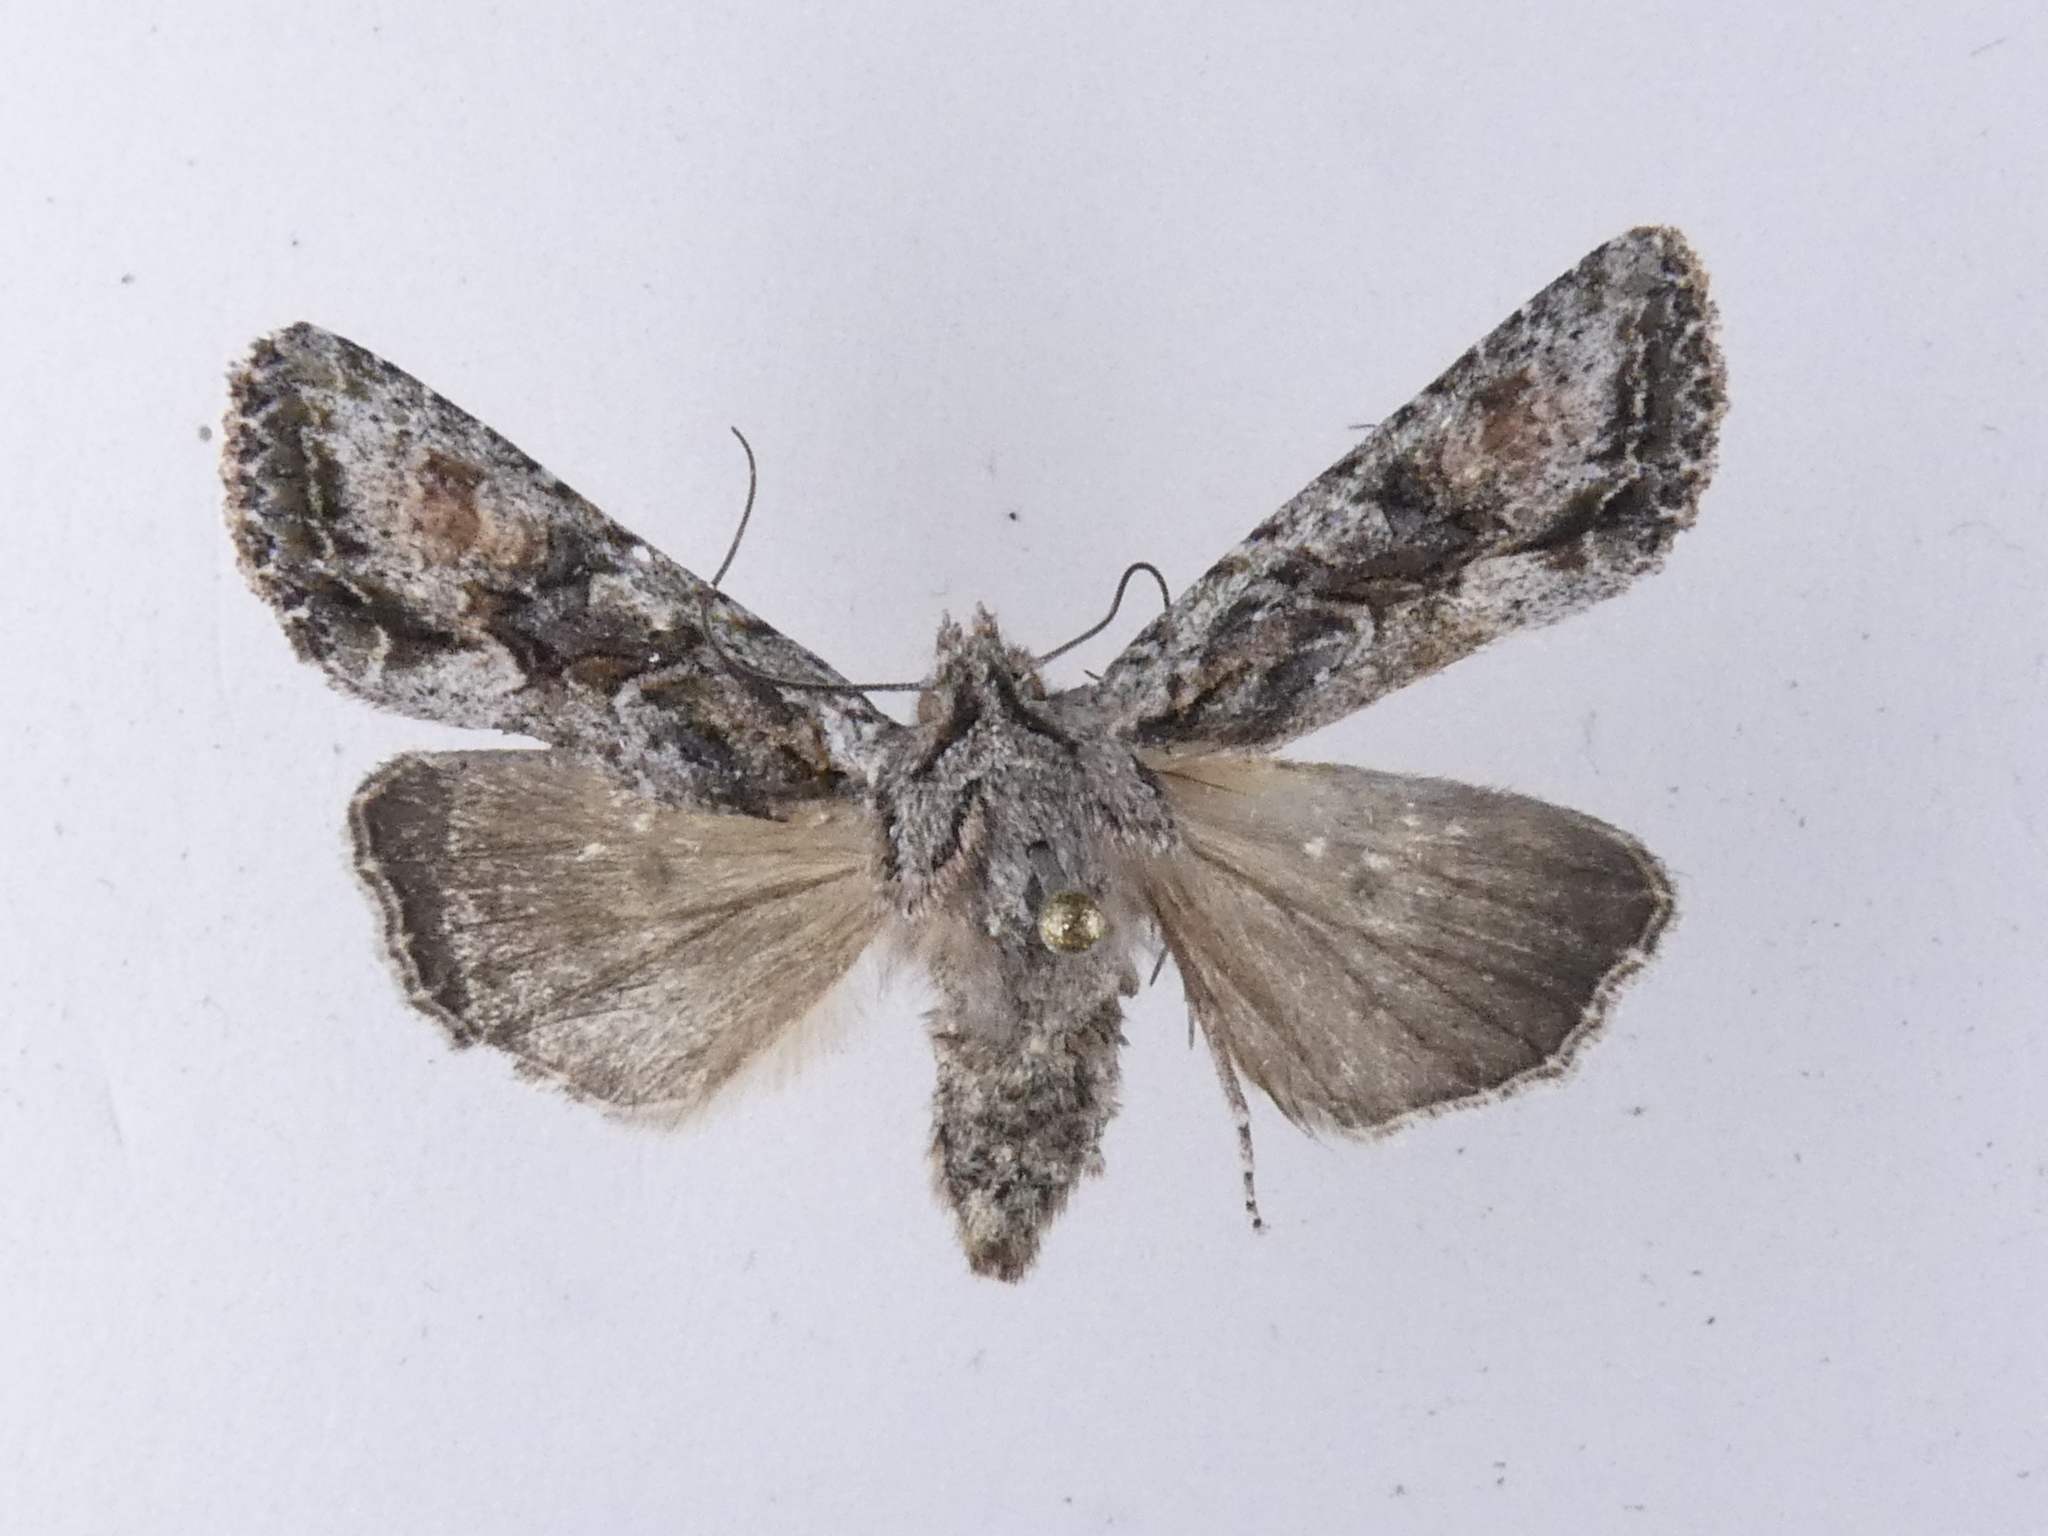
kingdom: Animalia
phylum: Arthropoda
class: Insecta
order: Lepidoptera
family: Noctuidae
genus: Ichneutica
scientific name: Ichneutica mutans
